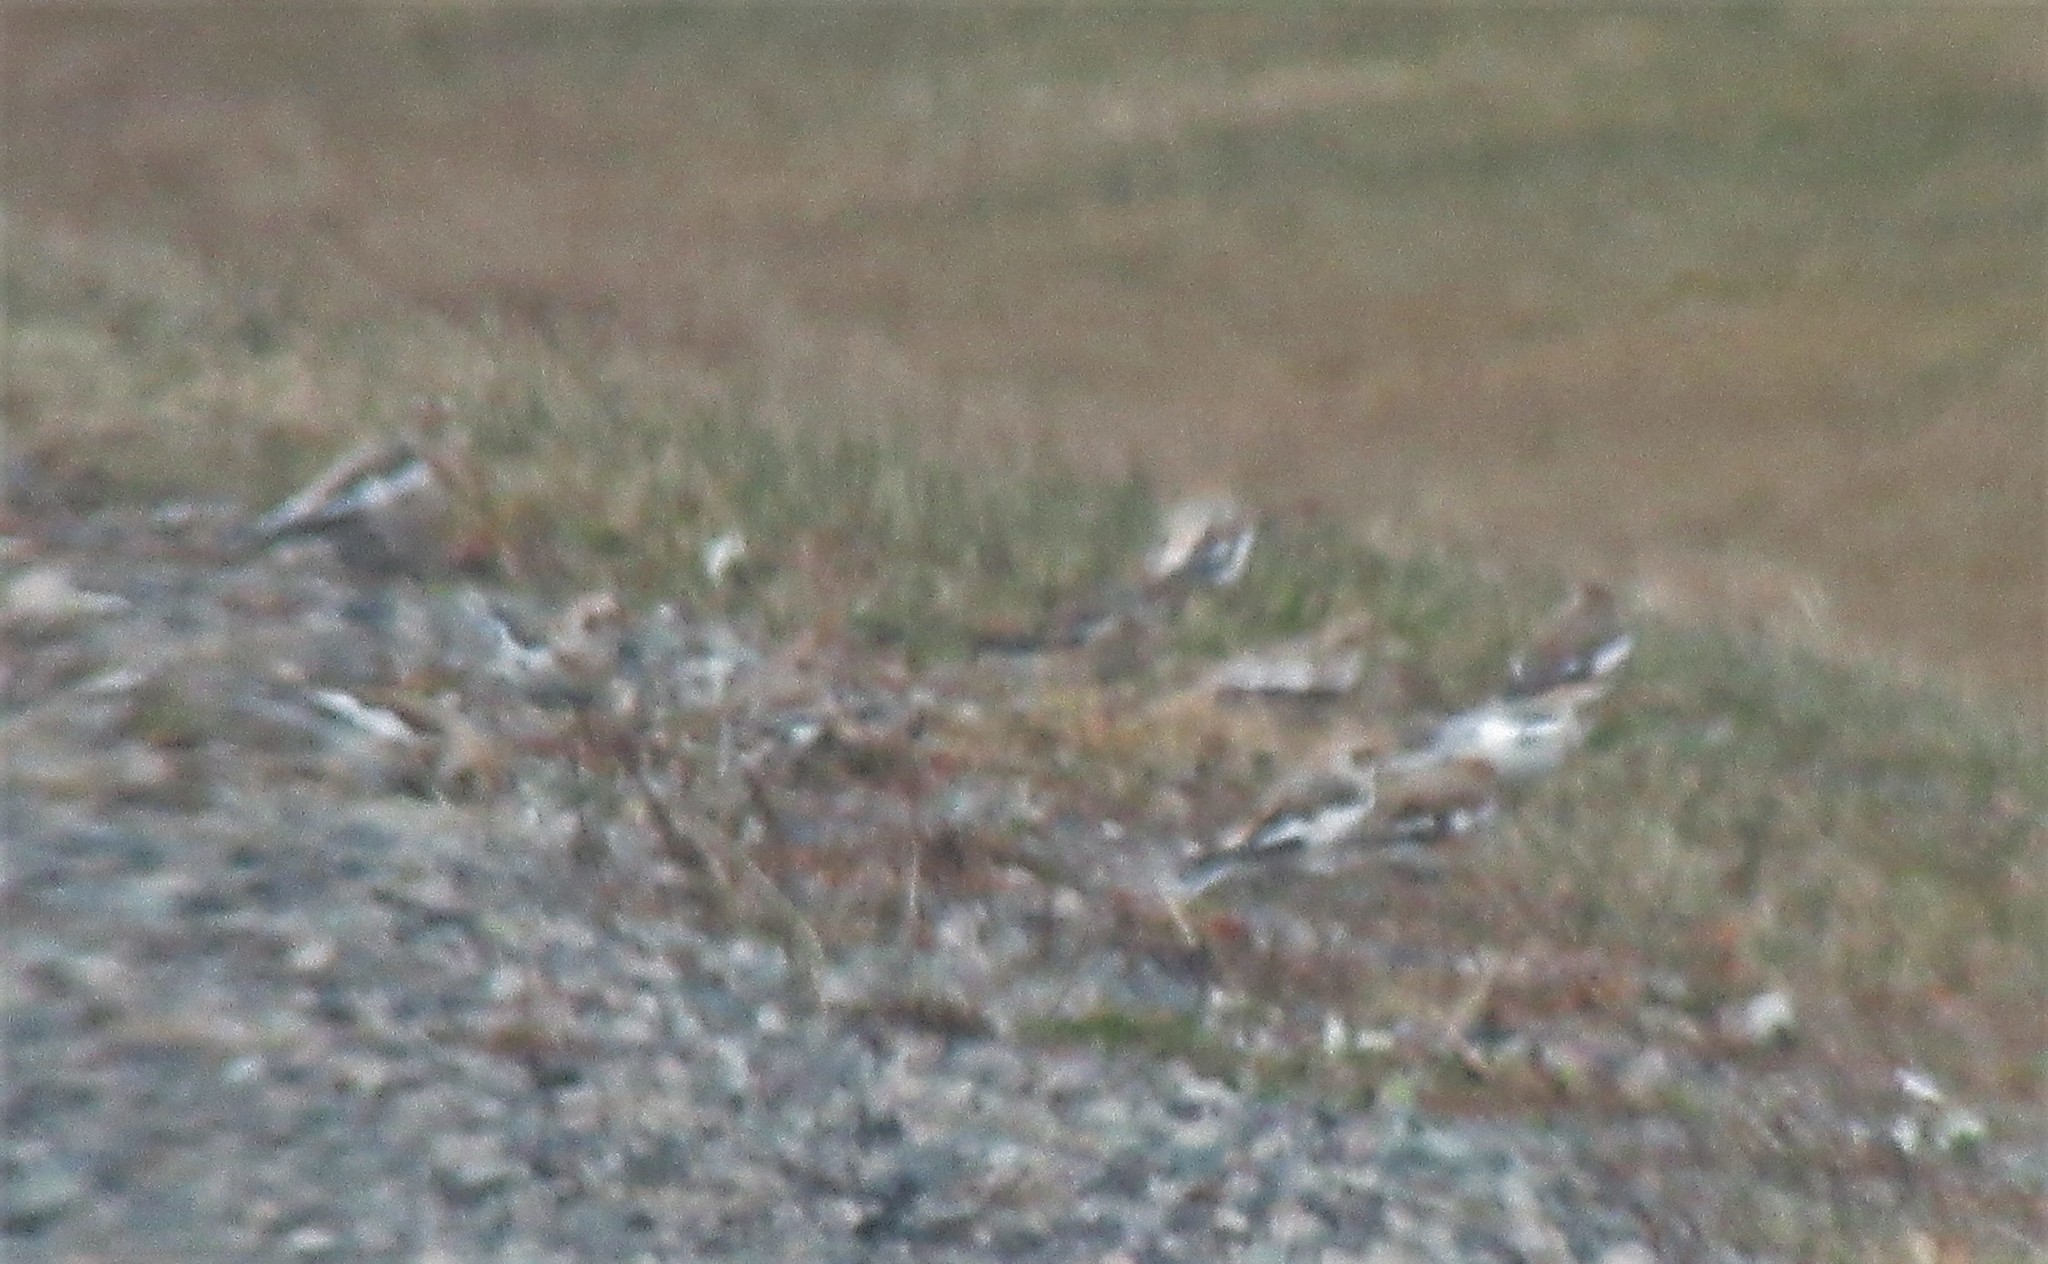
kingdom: Animalia
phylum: Chordata
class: Aves
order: Passeriformes
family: Calcariidae
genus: Plectrophenax
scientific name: Plectrophenax nivalis
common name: Snow bunting
